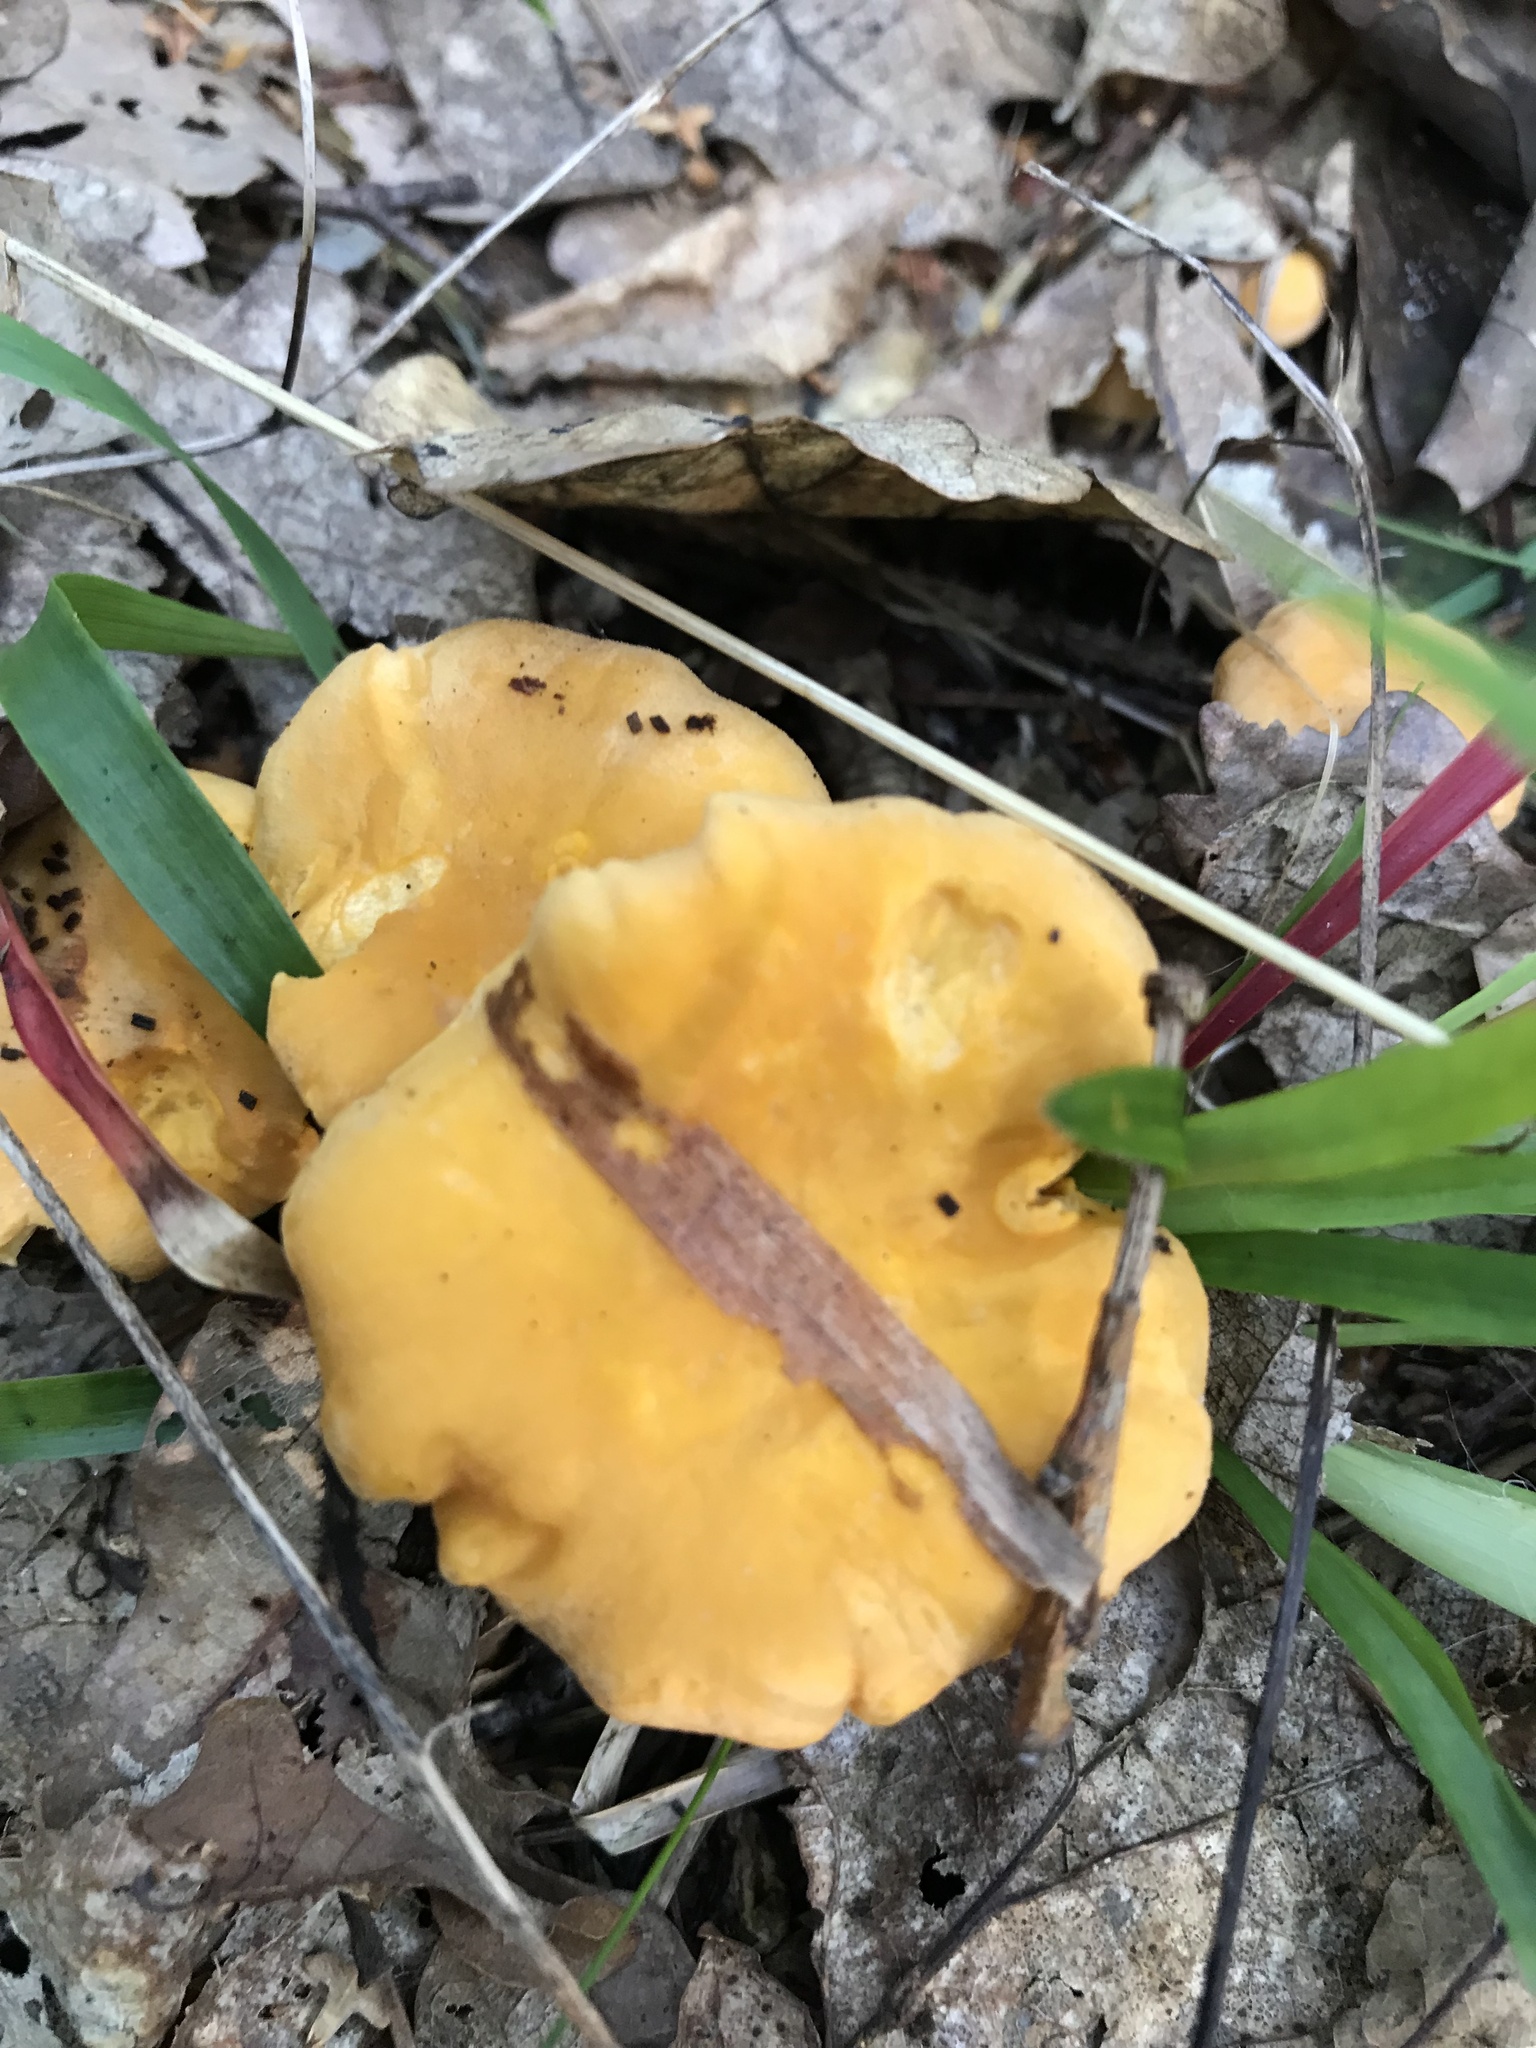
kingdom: Fungi
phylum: Basidiomycota
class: Agaricomycetes
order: Cantharellales
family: Hydnaceae
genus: Cantharellus
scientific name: Cantharellus cibarius
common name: Chanterelle
